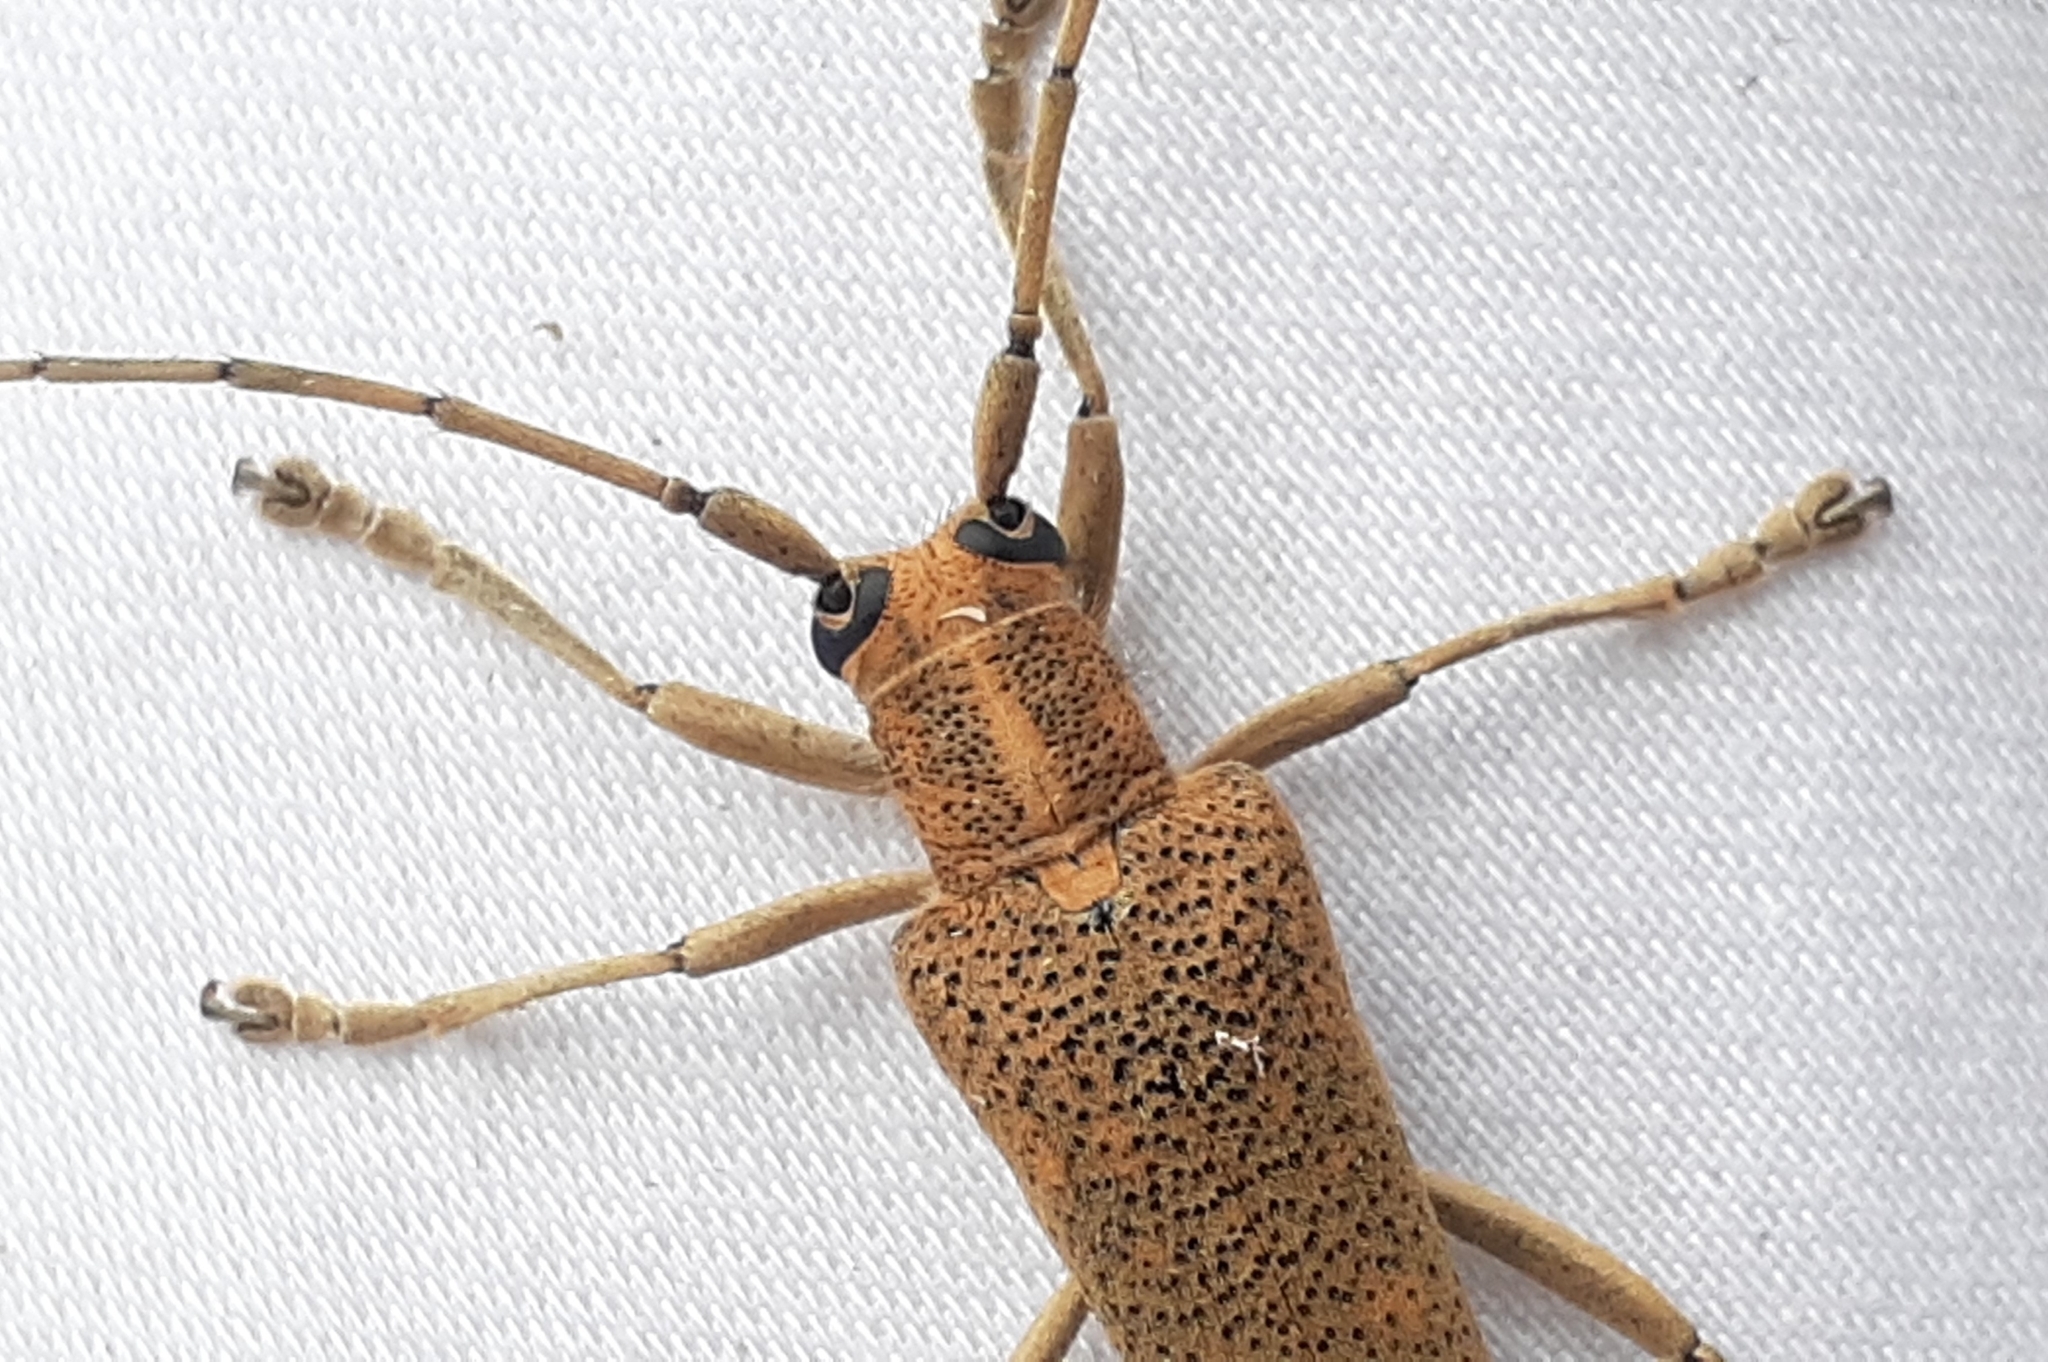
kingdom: Animalia
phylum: Arthropoda
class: Insecta
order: Coleoptera
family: Cerambycidae
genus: Saperda
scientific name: Saperda calcarata
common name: Poplar borer
